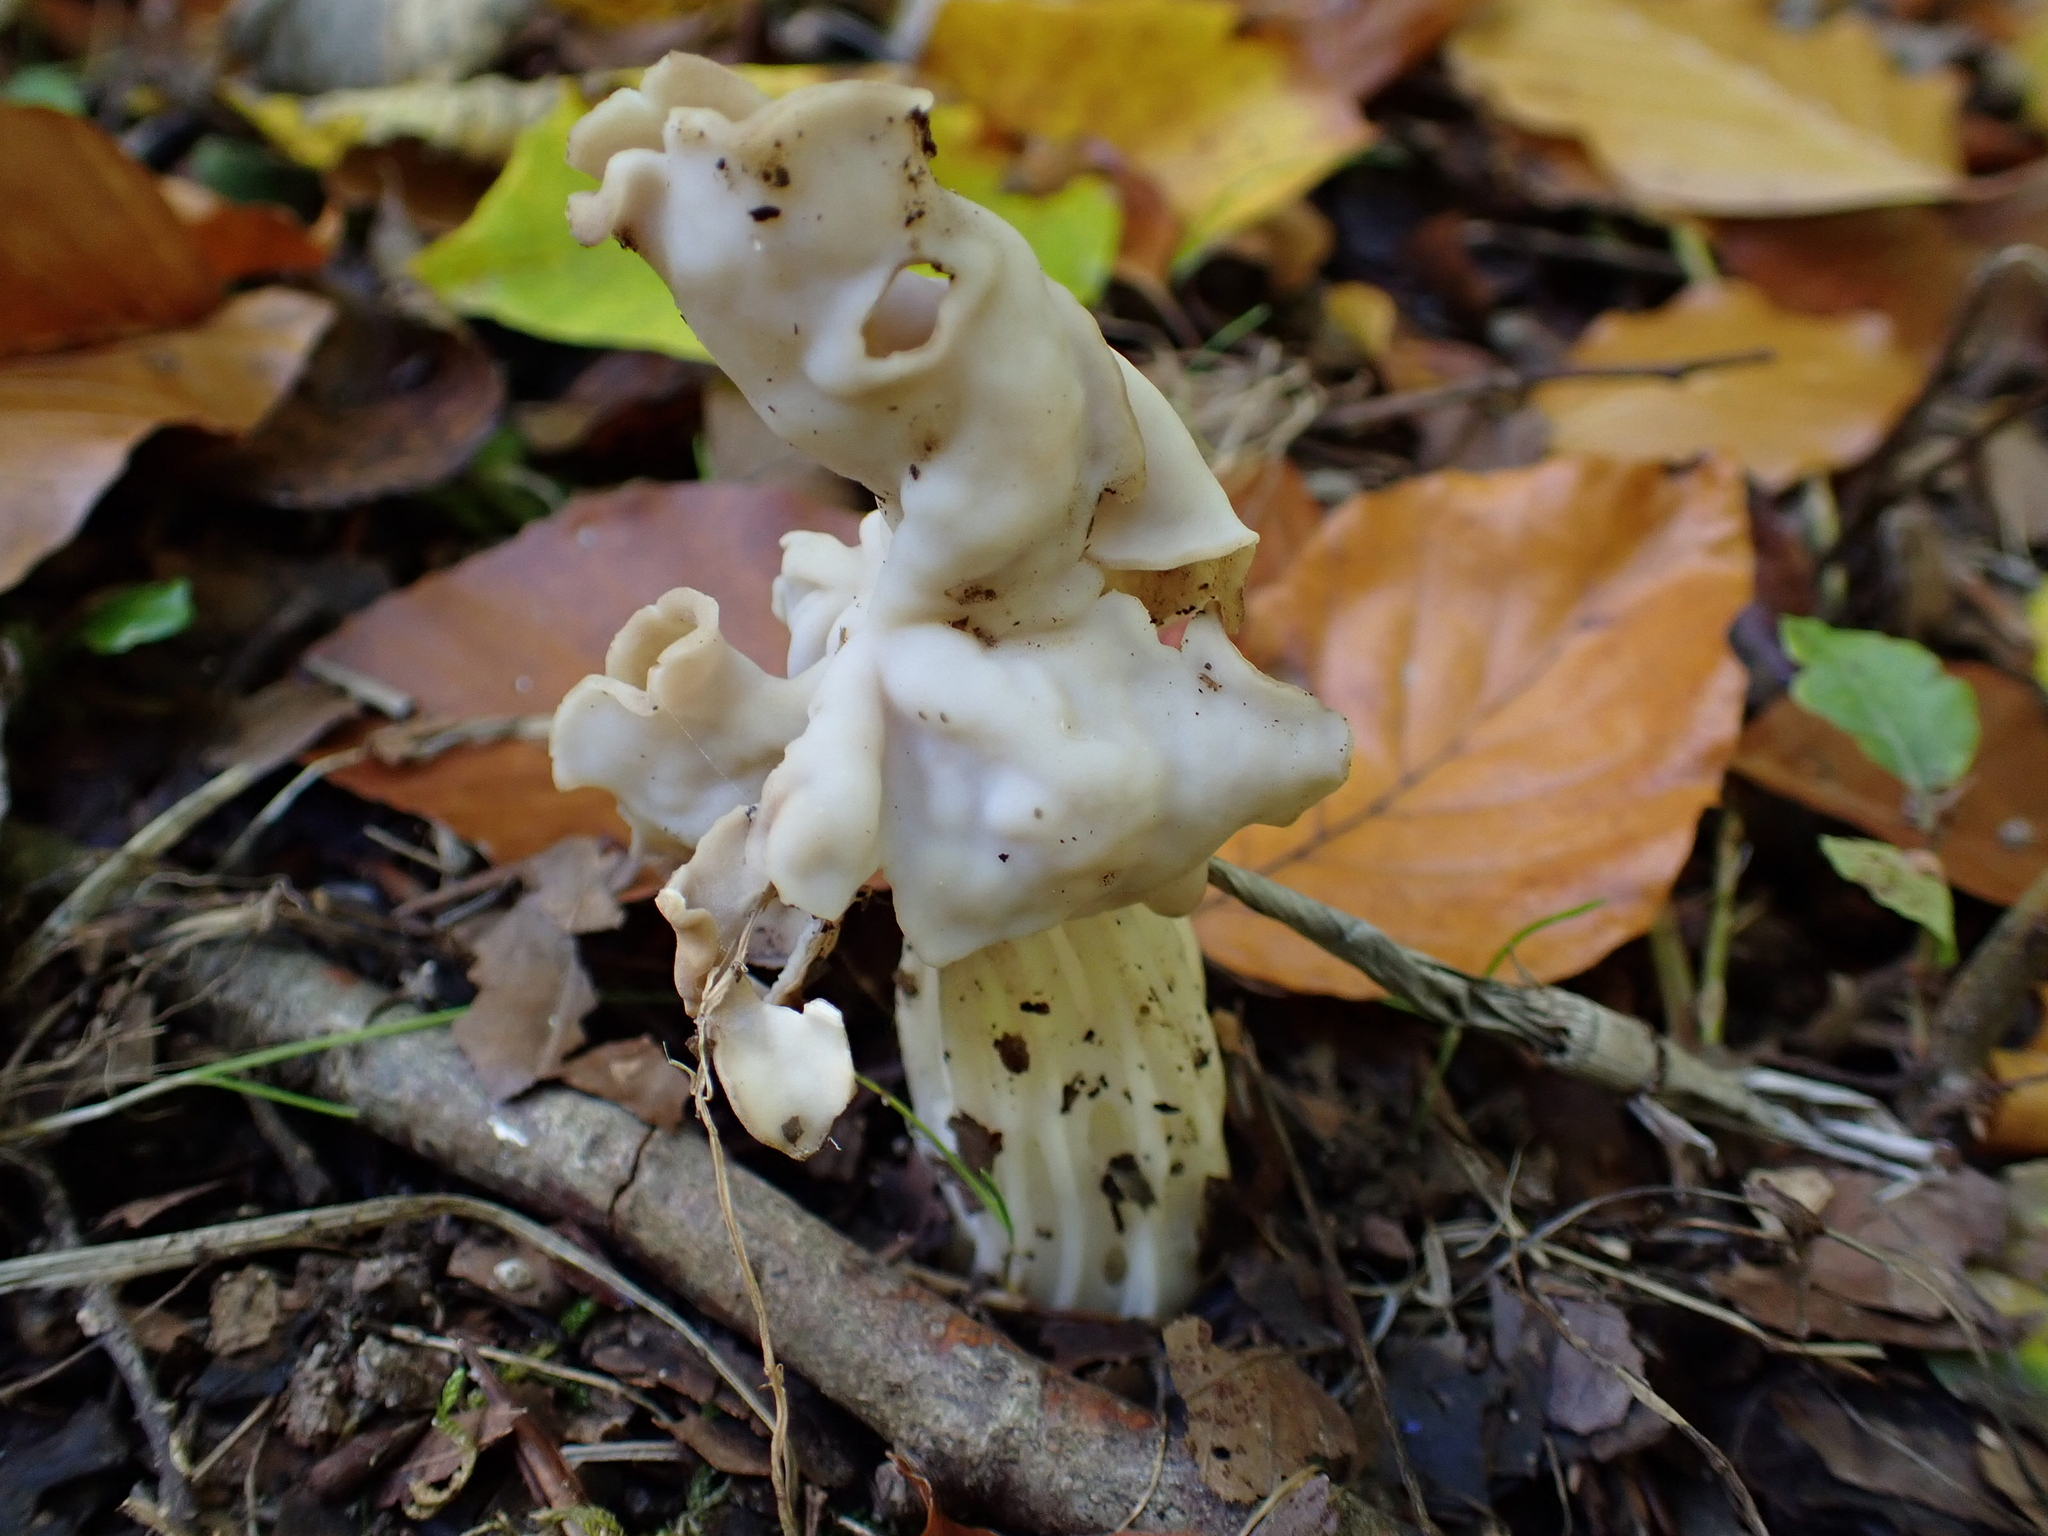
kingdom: Fungi
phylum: Ascomycota
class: Pezizomycetes
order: Pezizales
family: Helvellaceae
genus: Helvella
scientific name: Helvella crispa
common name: White saddle
